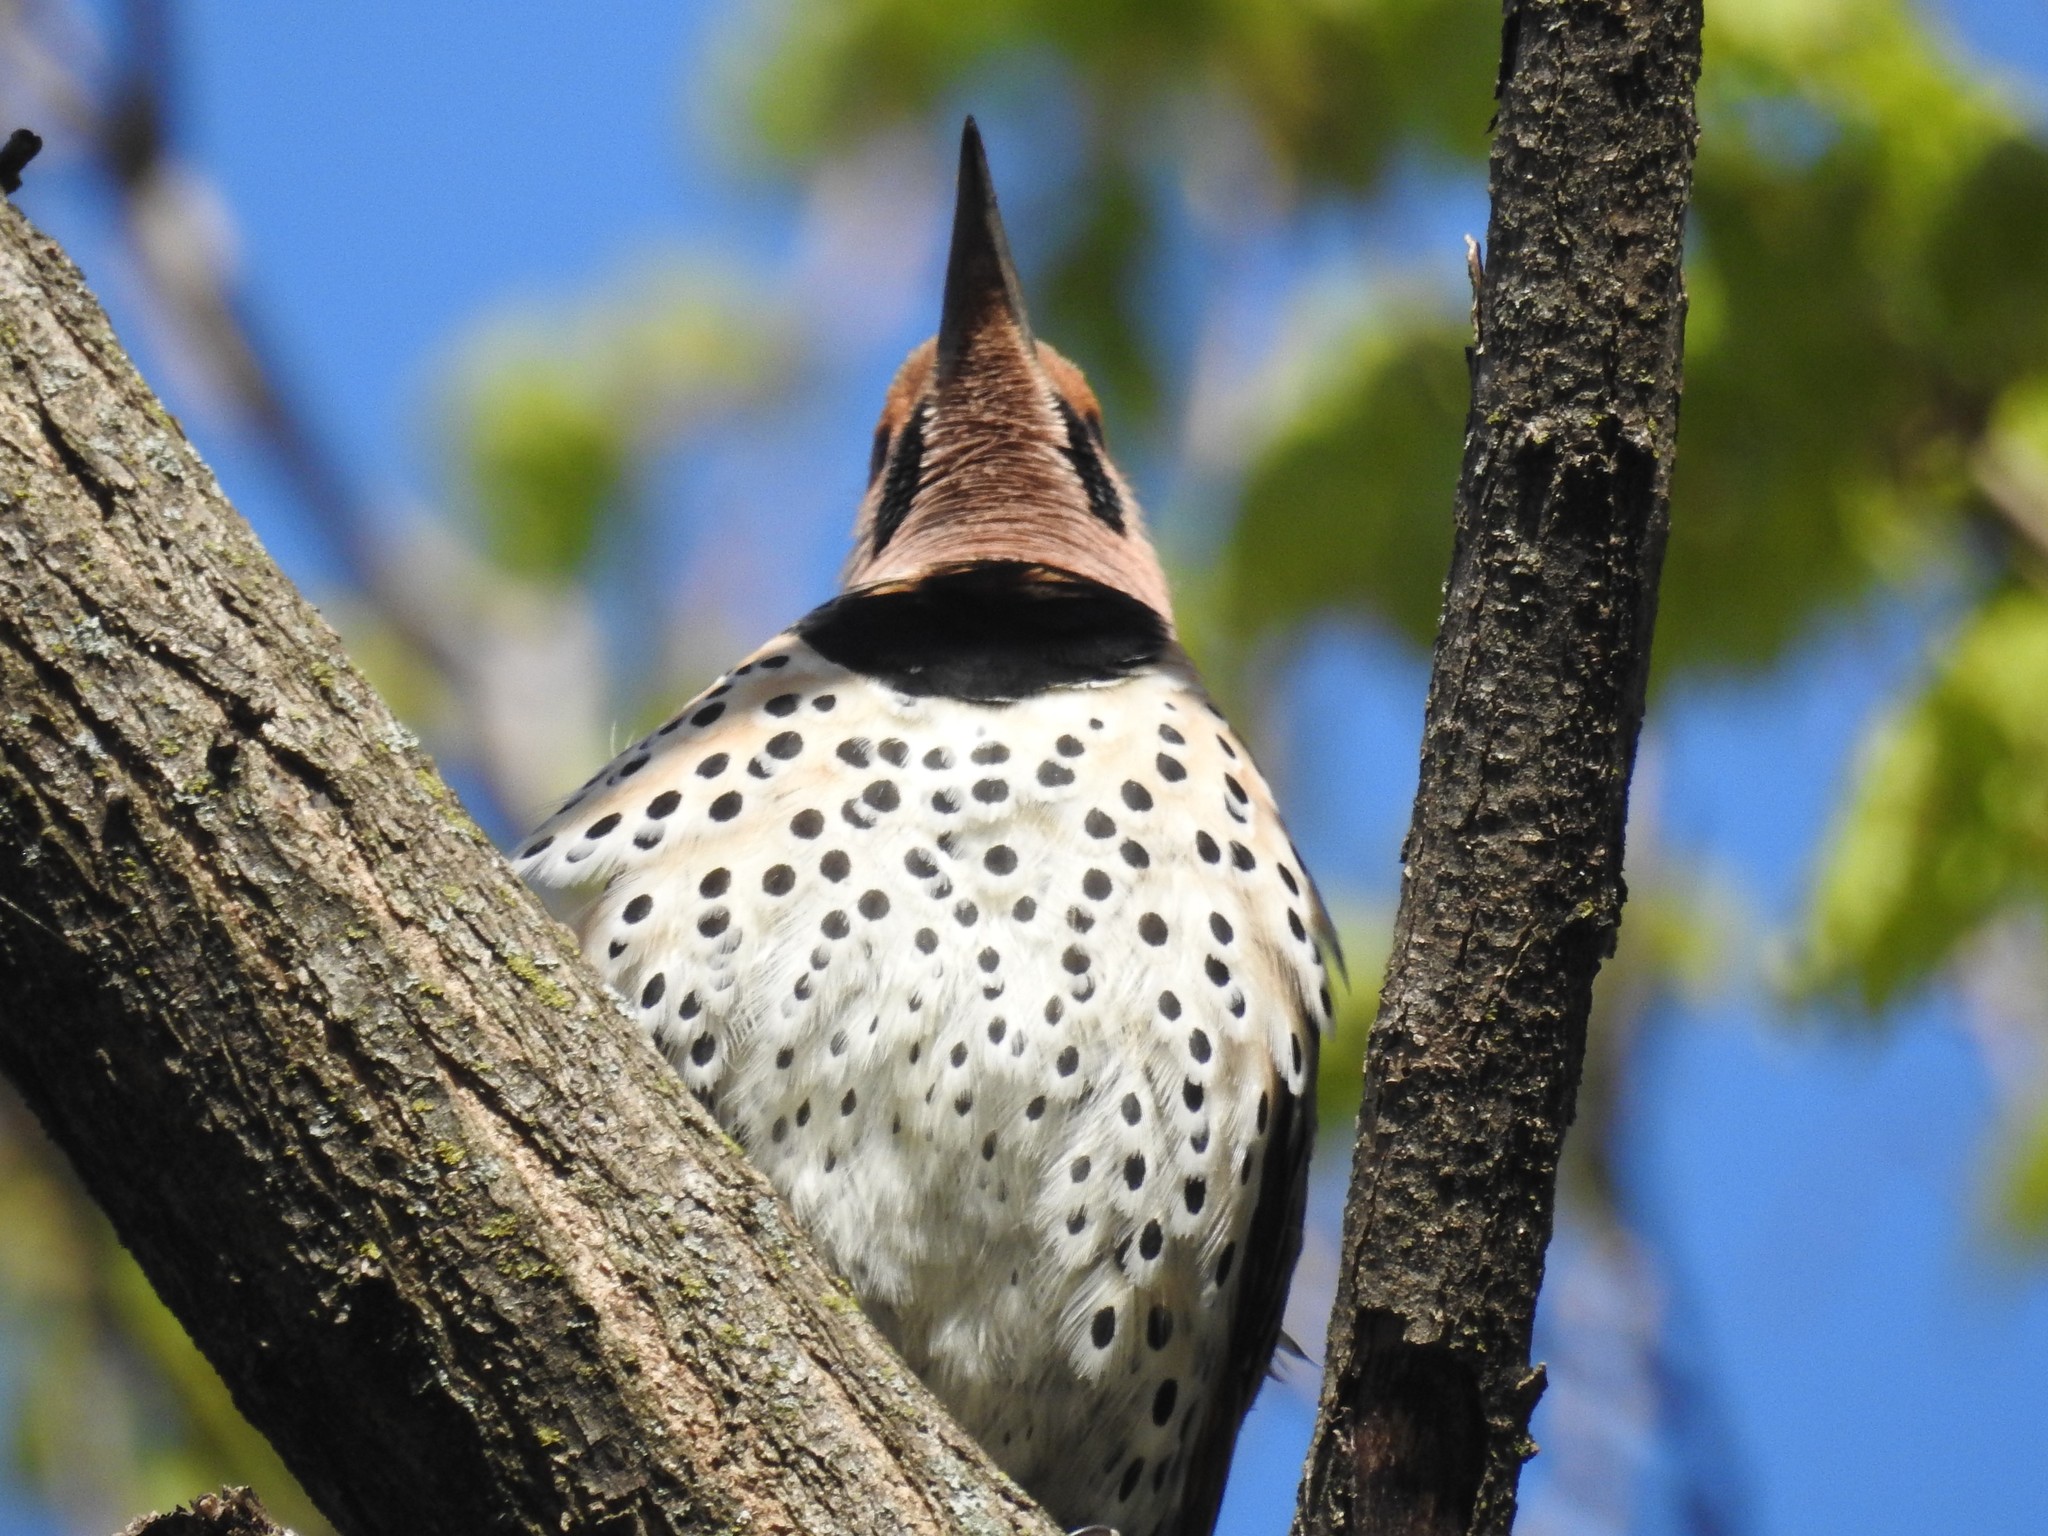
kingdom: Animalia
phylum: Chordata
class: Aves
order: Piciformes
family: Picidae
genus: Colaptes
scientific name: Colaptes auratus
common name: Northern flicker
